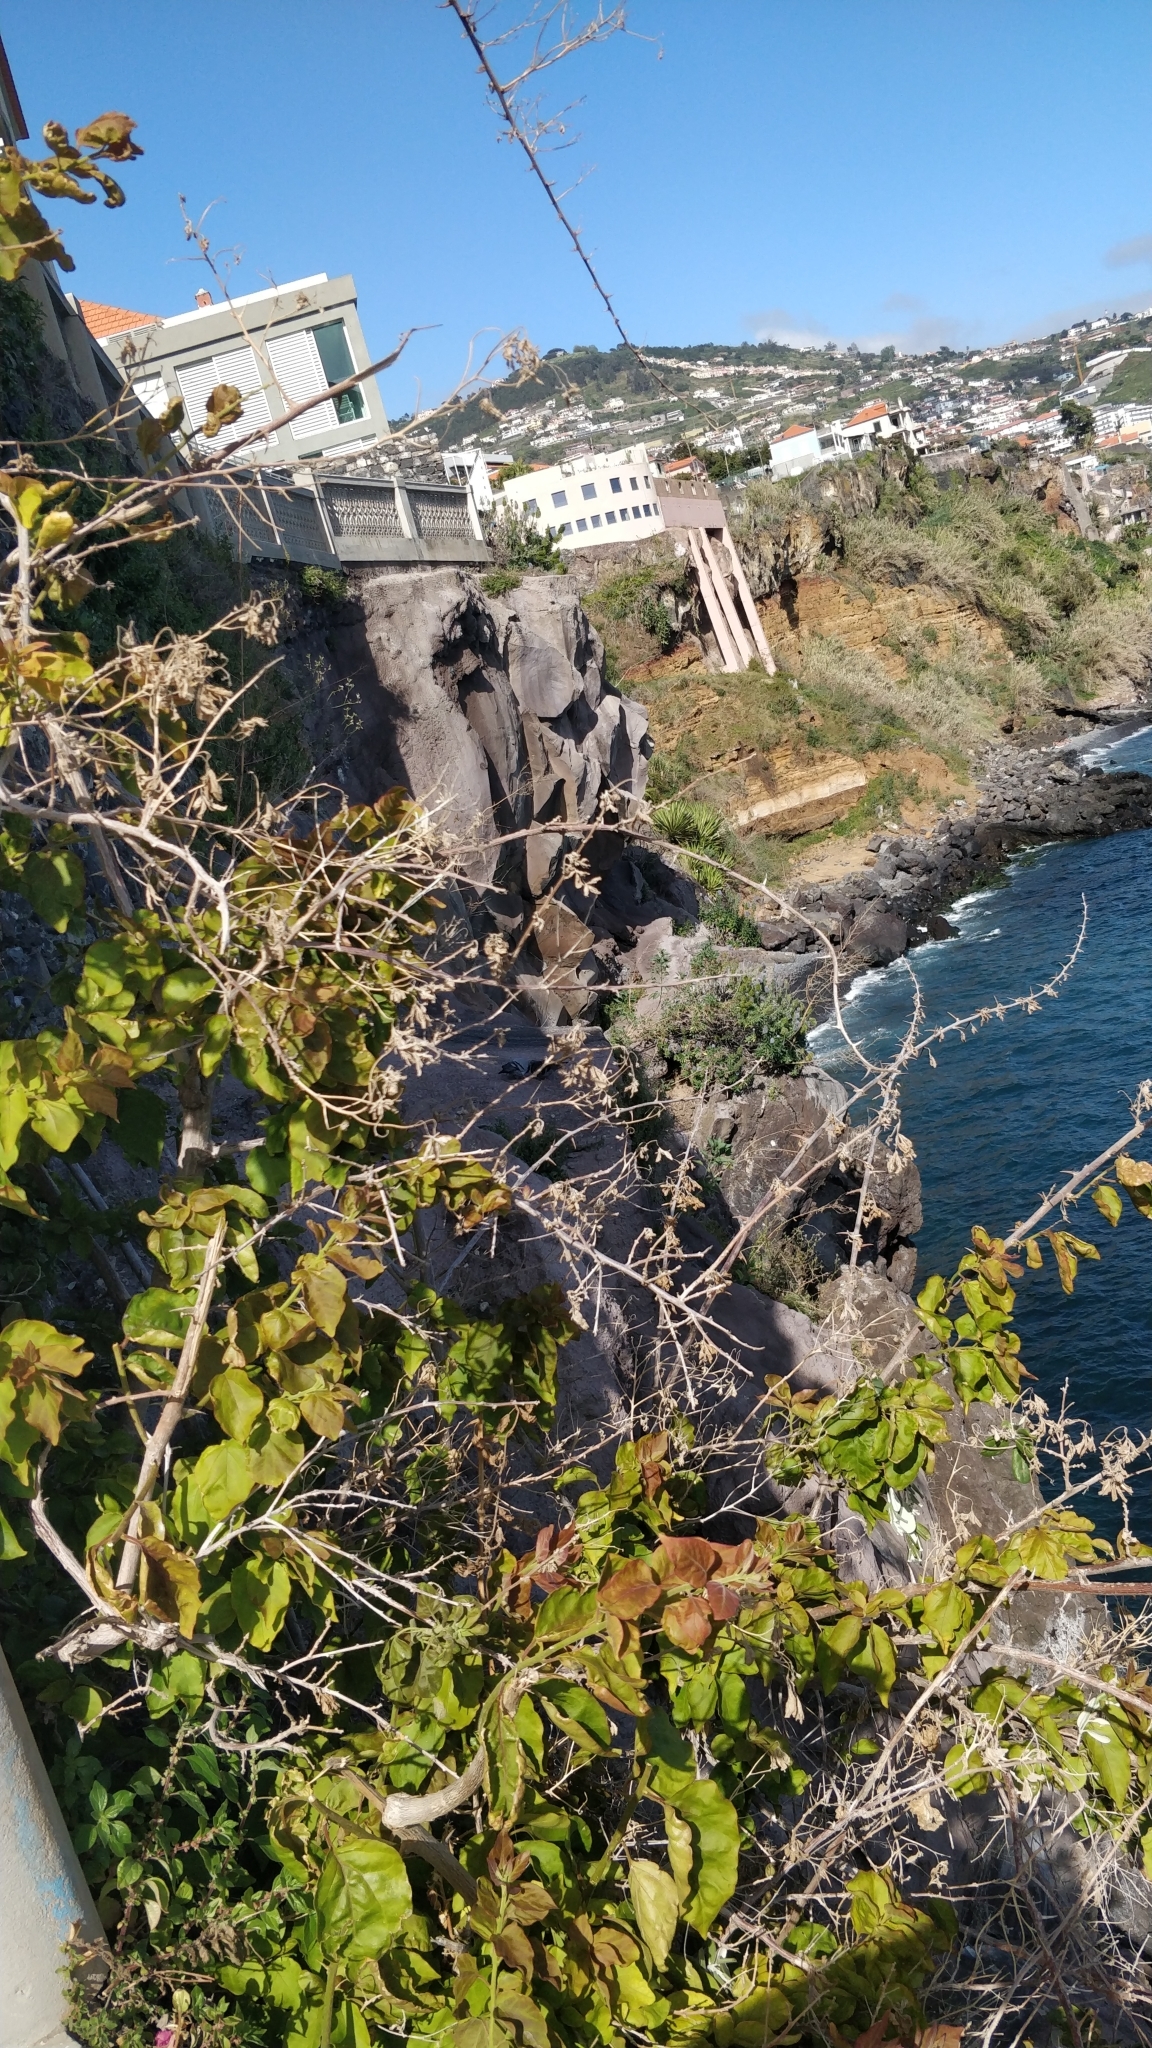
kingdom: Plantae
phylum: Tracheophyta
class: Magnoliopsida
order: Boraginales
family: Boraginaceae
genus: Echium
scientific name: Echium nervosum
